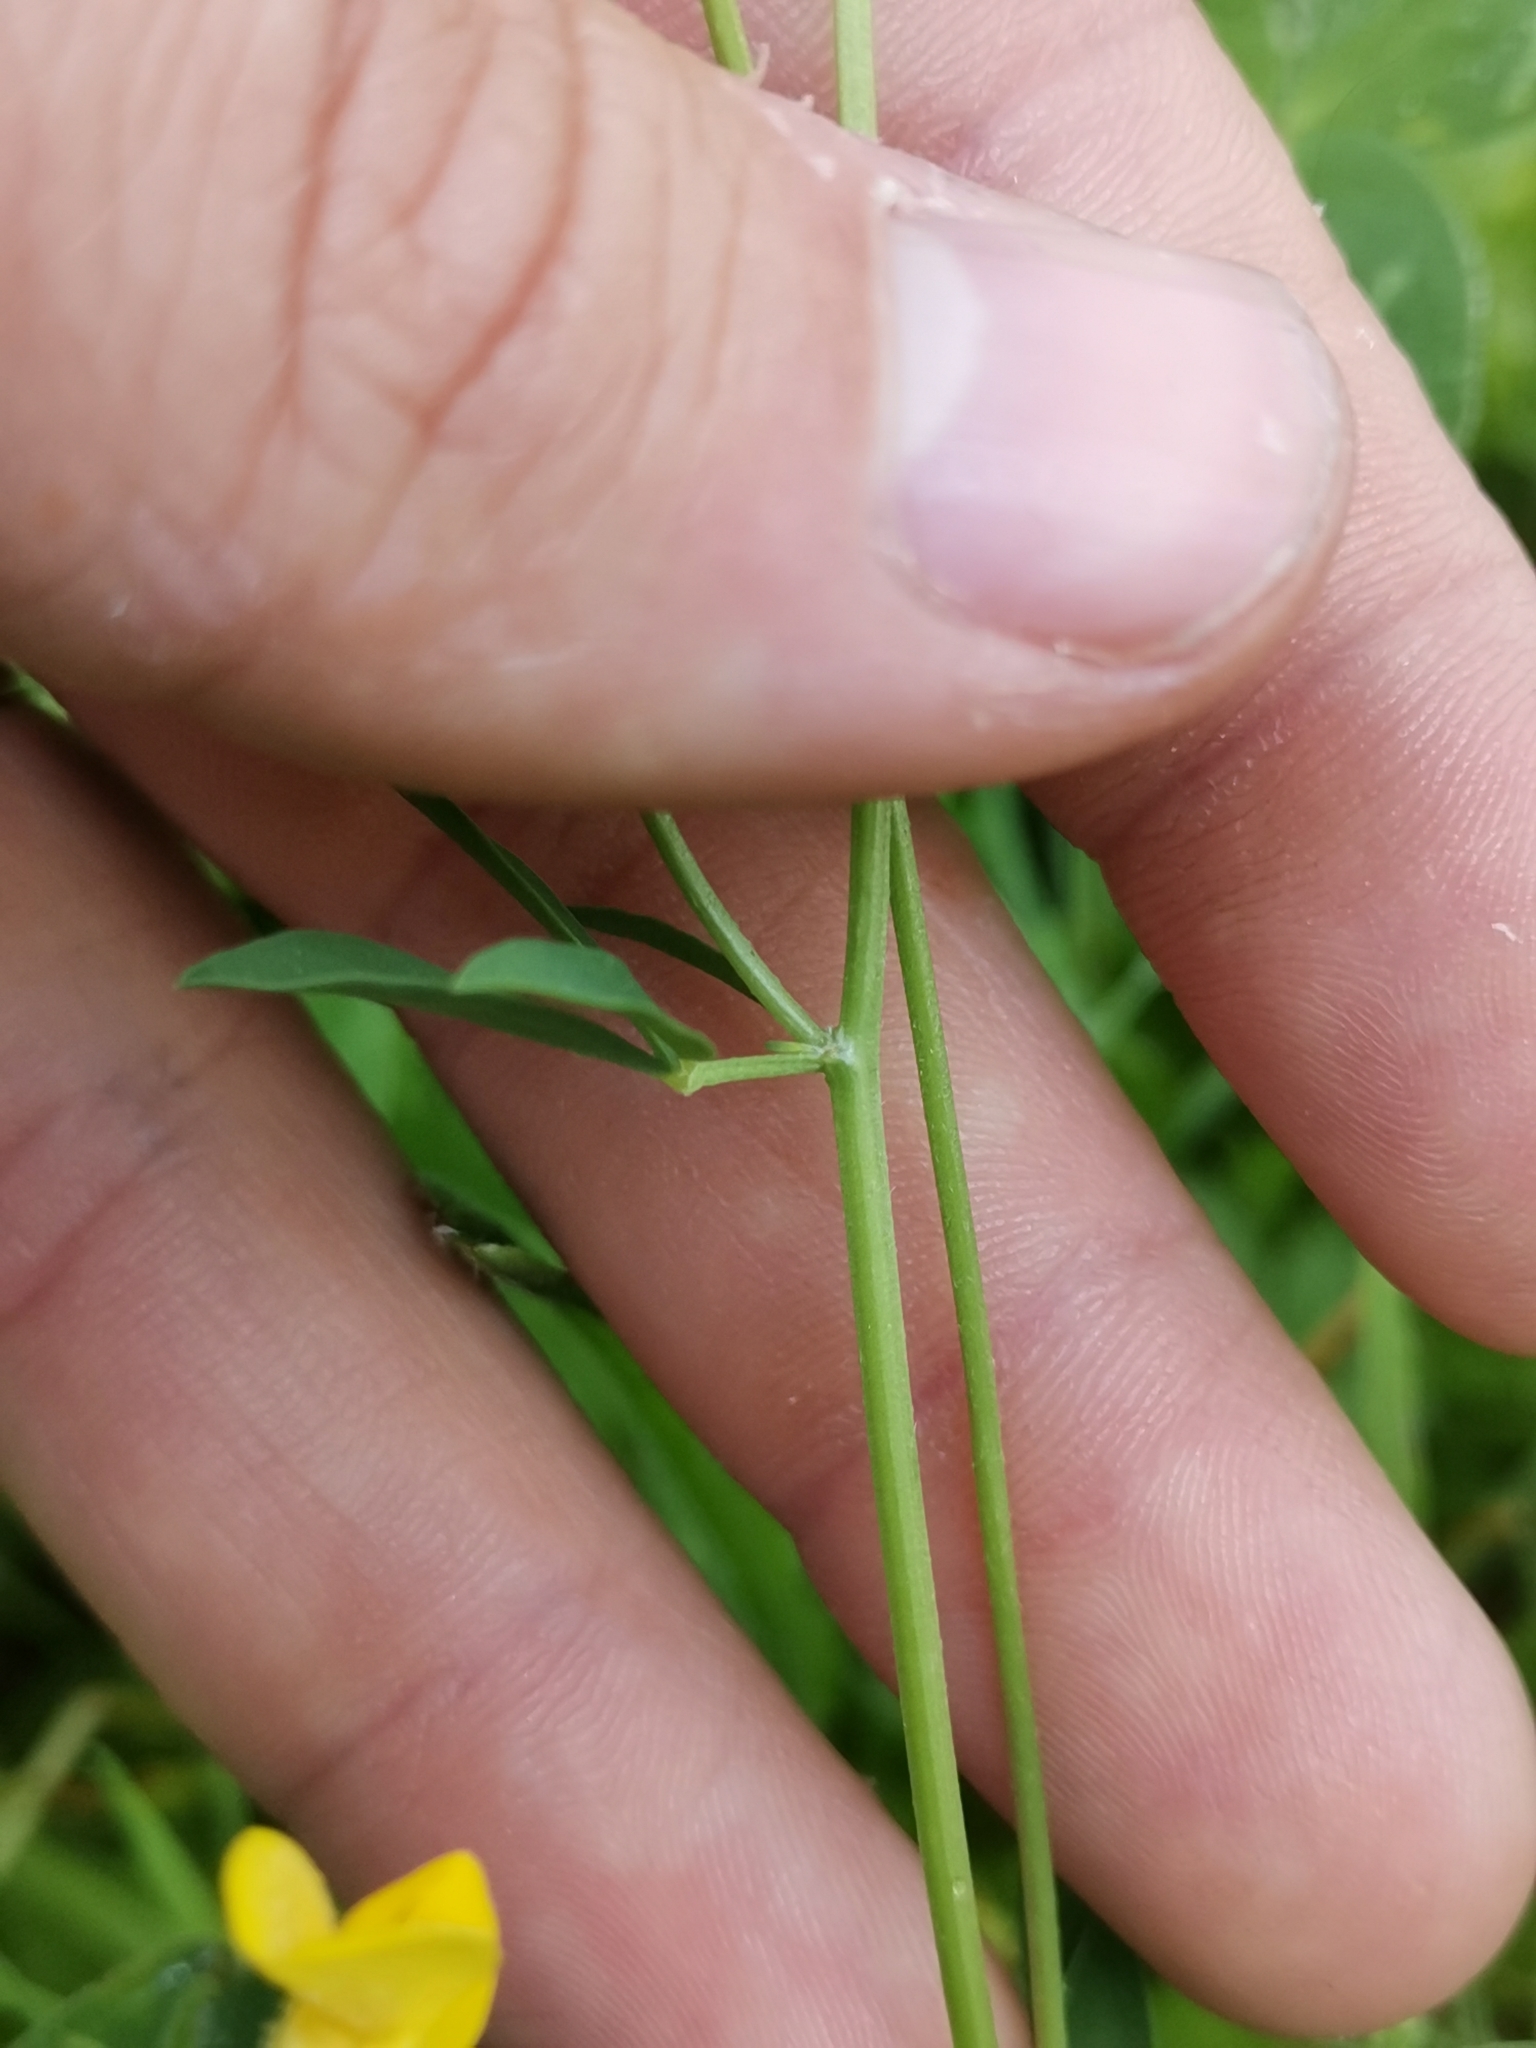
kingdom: Plantae
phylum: Tracheophyta
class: Magnoliopsida
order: Fabales
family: Fabaceae
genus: Lotus
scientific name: Lotus tenuis
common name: Narrow-leaved bird's-foot-trefoil
